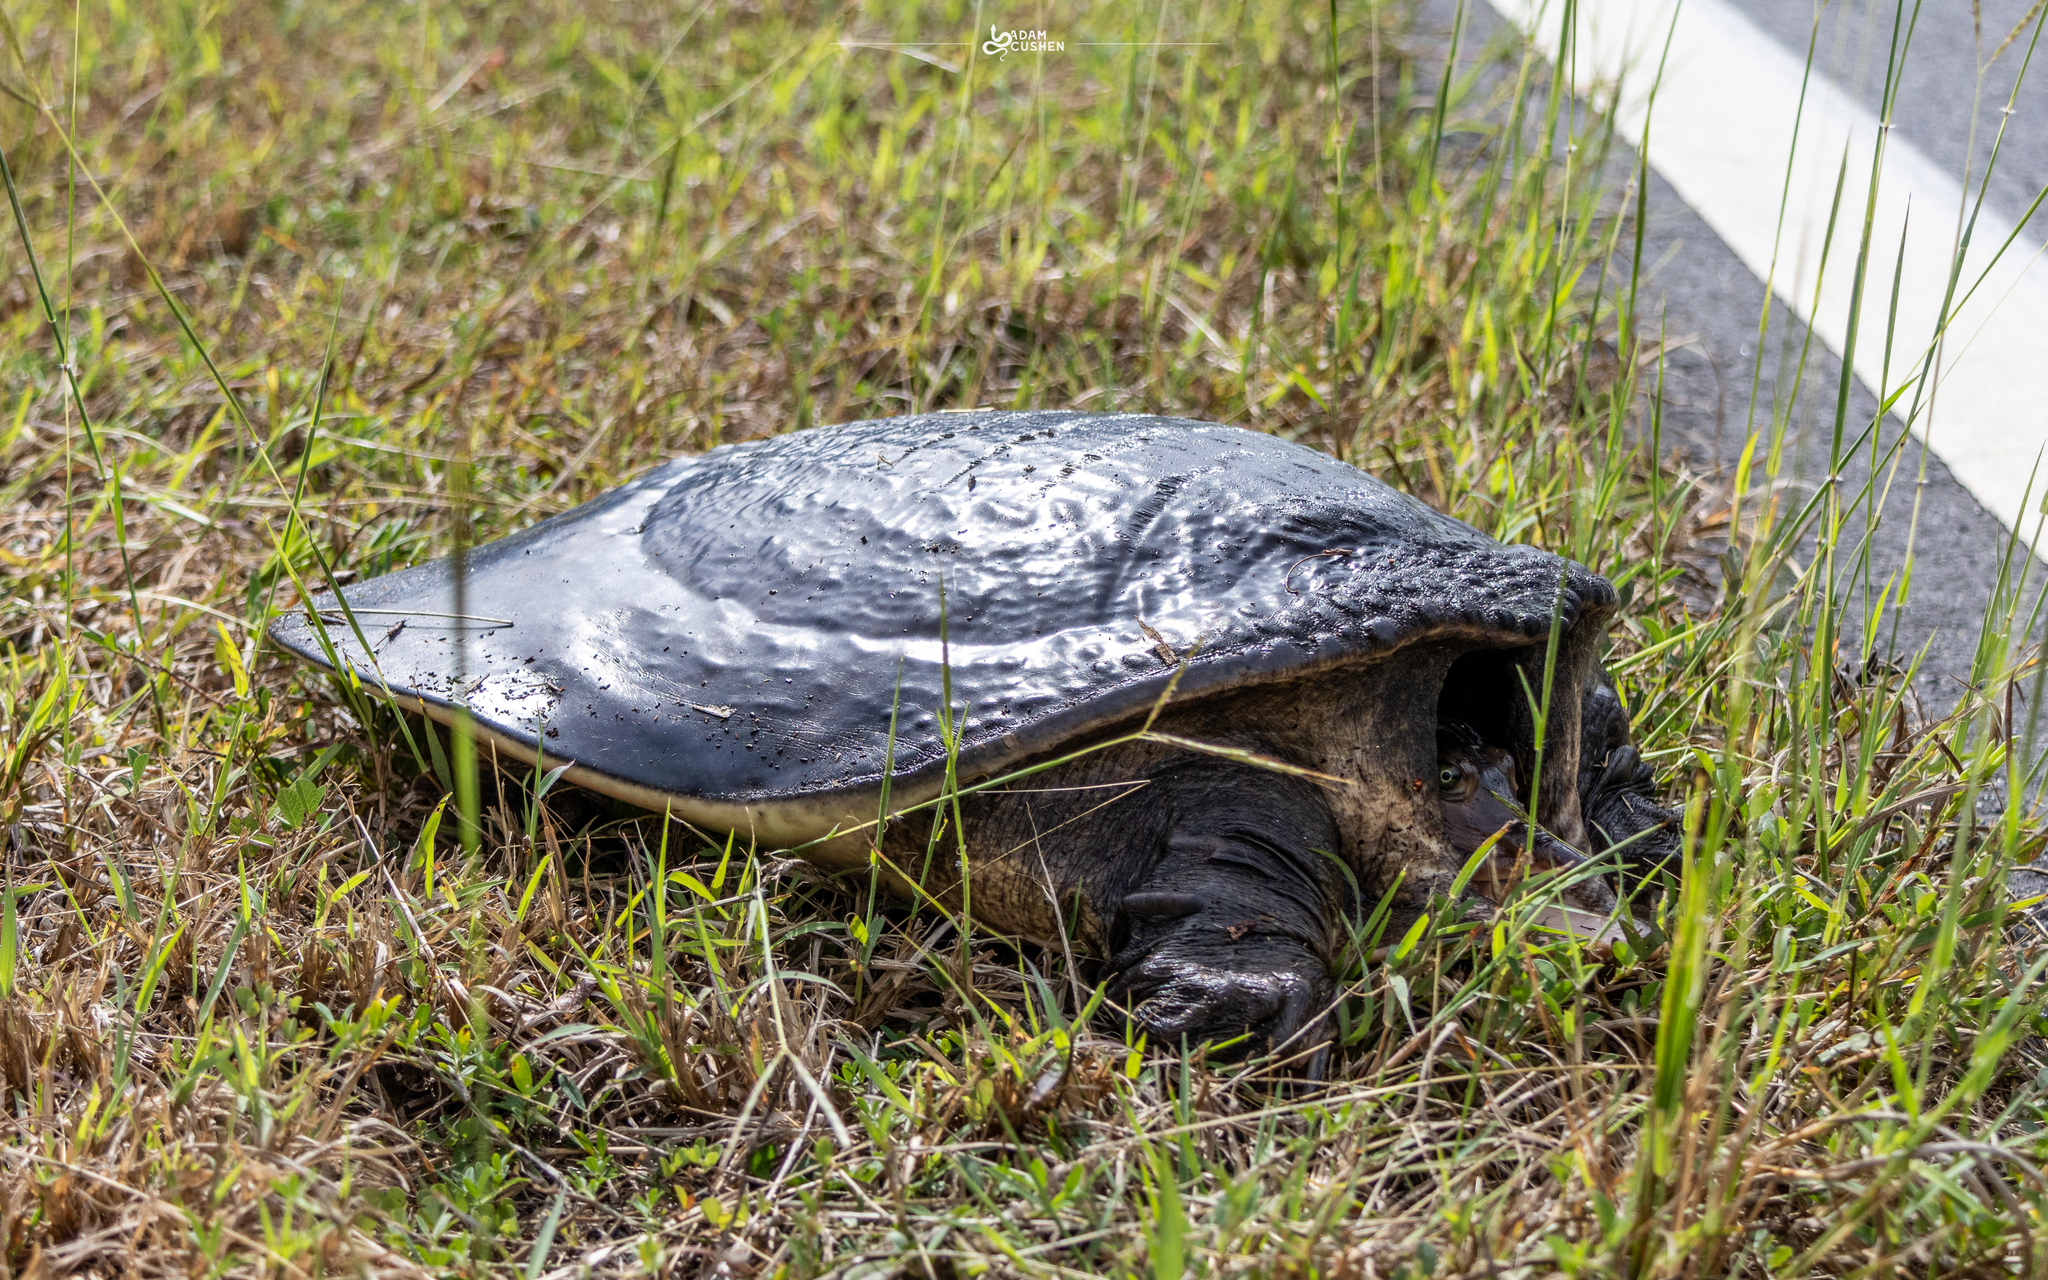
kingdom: Animalia
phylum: Chordata
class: Testudines
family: Trionychidae
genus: Apalone
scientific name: Apalone ferox
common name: Florida softshell turtle
